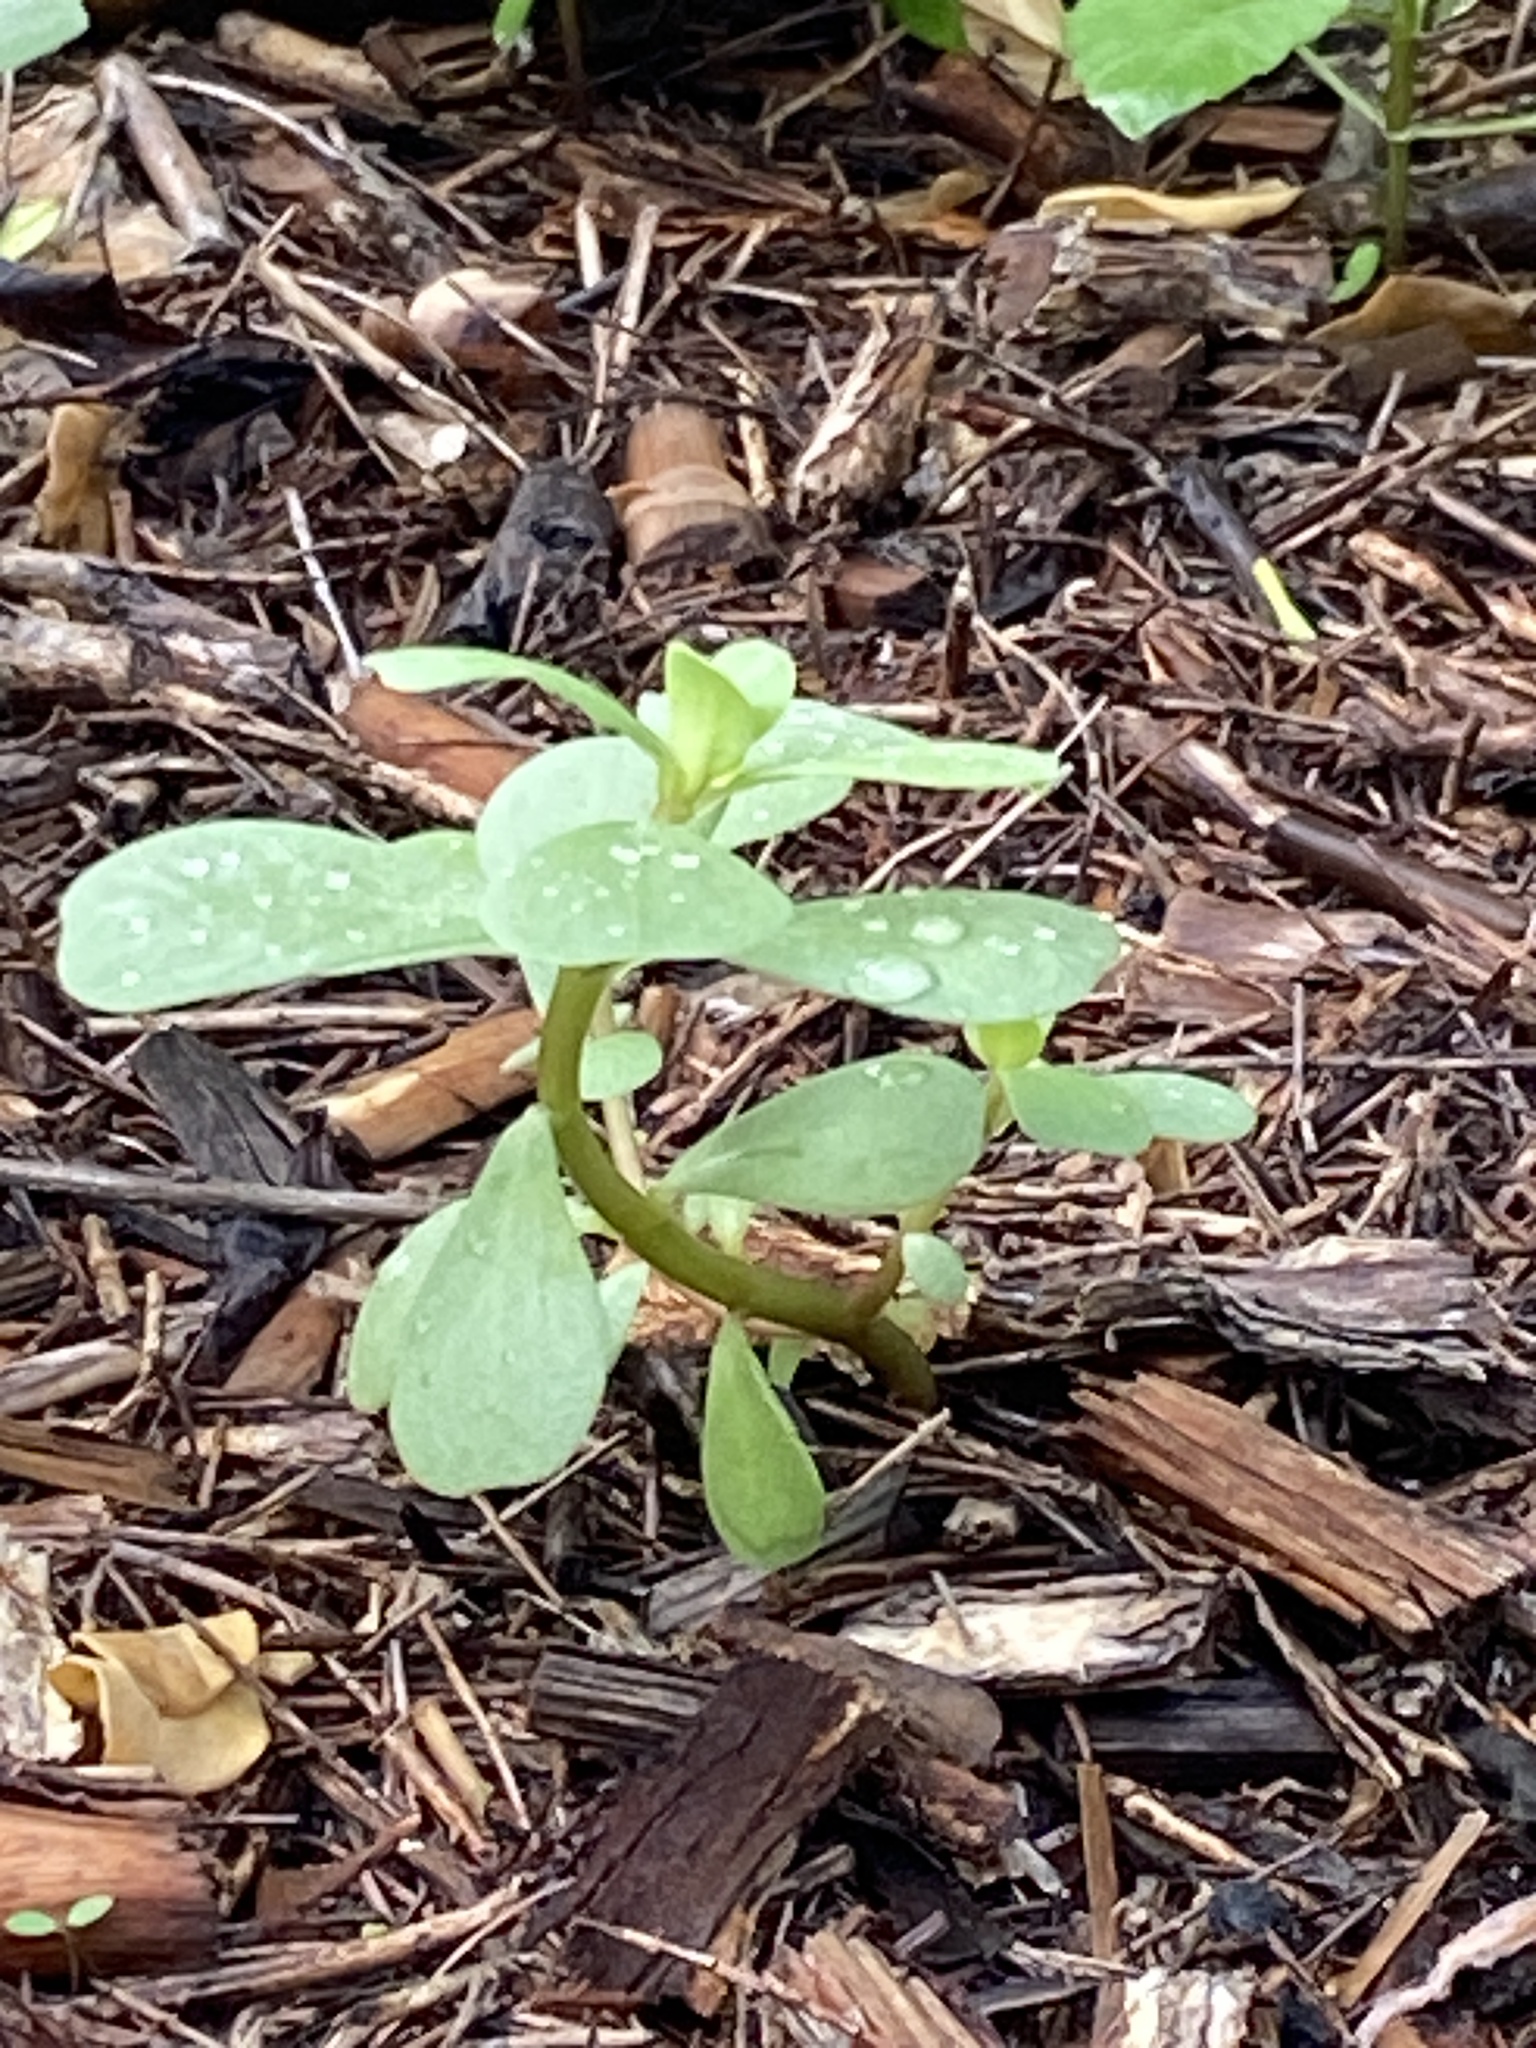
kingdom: Plantae
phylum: Tracheophyta
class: Magnoliopsida
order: Caryophyllales
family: Portulacaceae
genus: Portulaca
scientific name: Portulaca oleracea
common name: Common purslane
